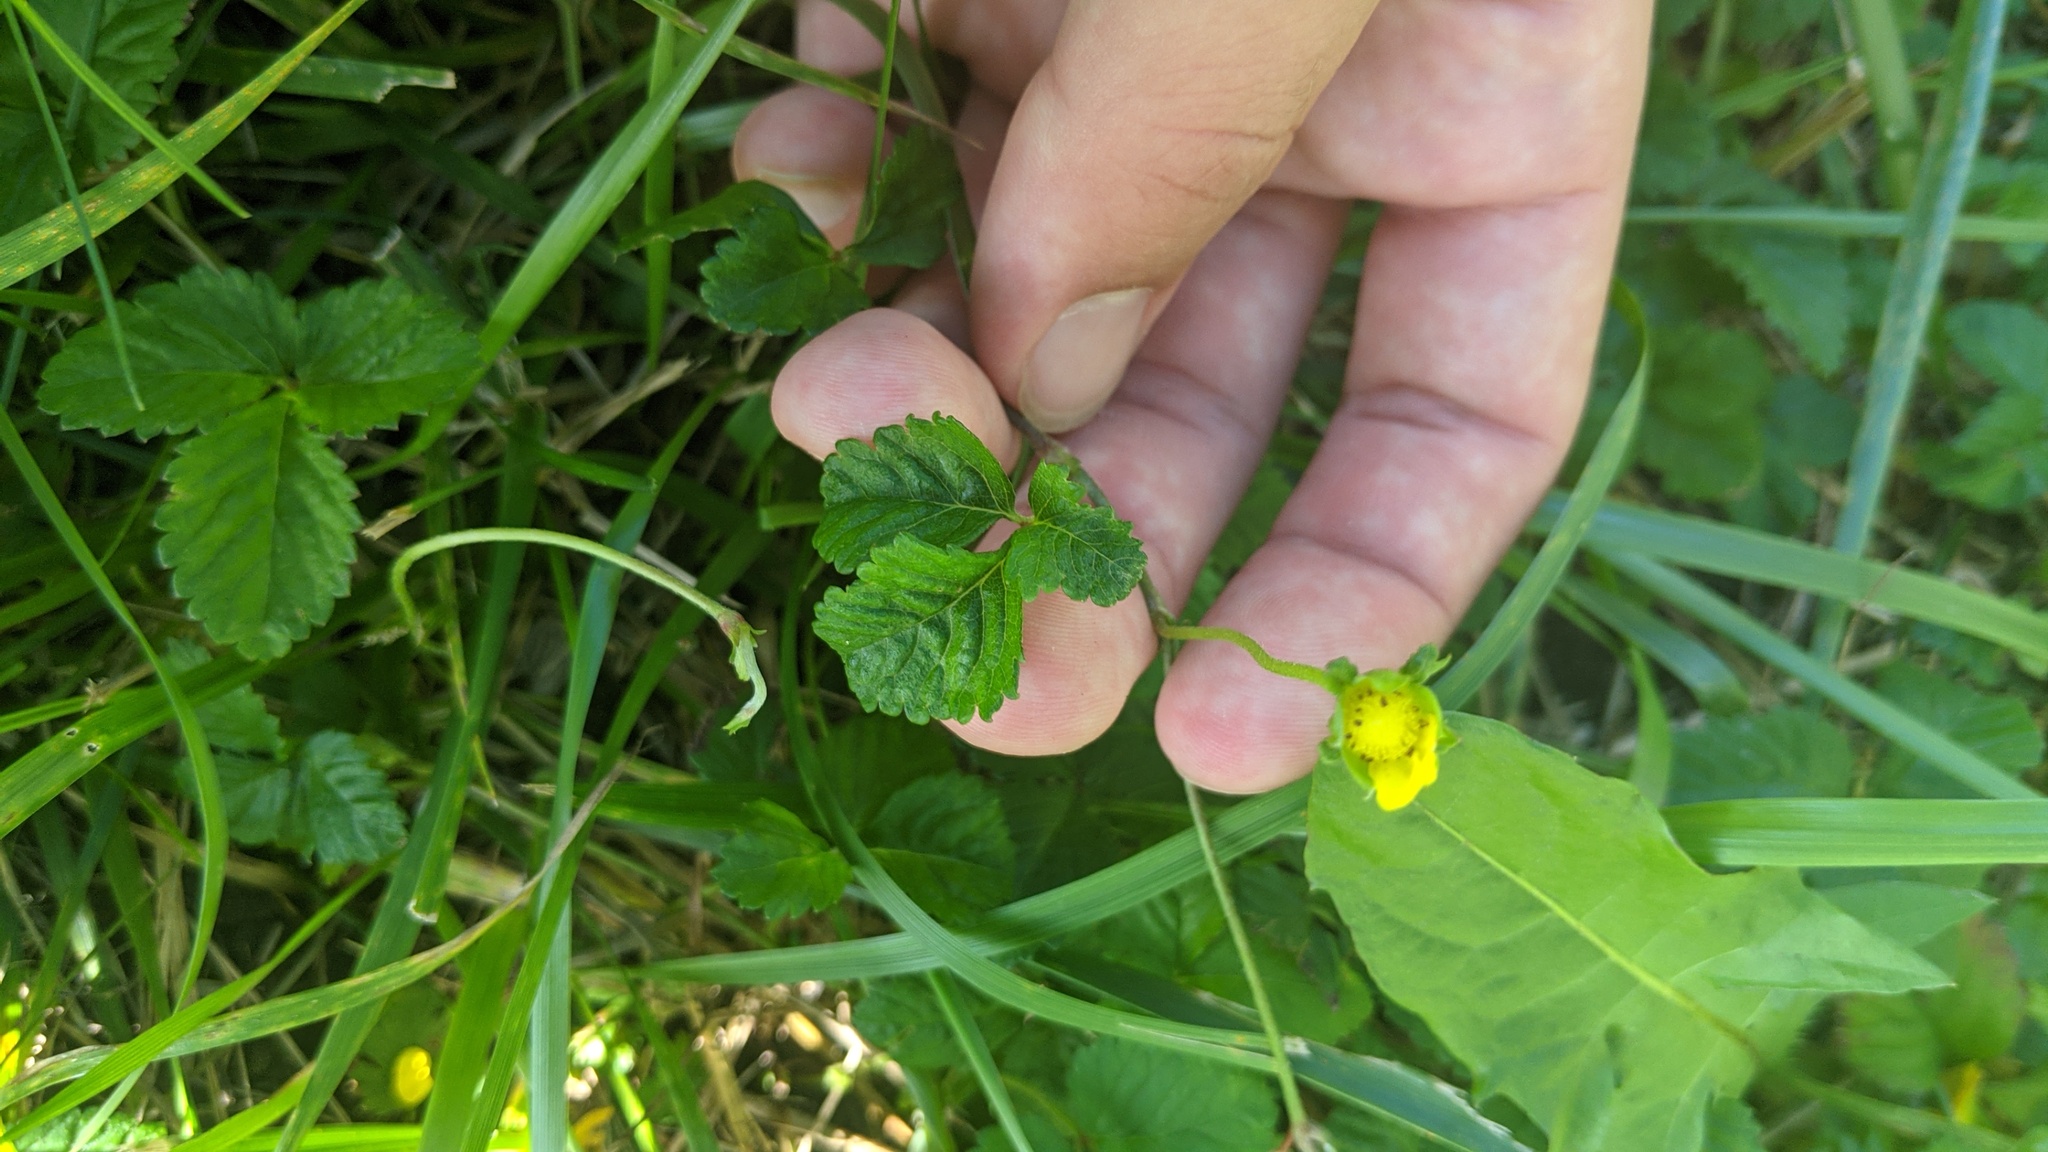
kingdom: Plantae
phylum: Tracheophyta
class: Magnoliopsida
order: Rosales
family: Rosaceae
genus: Potentilla
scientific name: Potentilla indica
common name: Yellow-flowered strawberry
